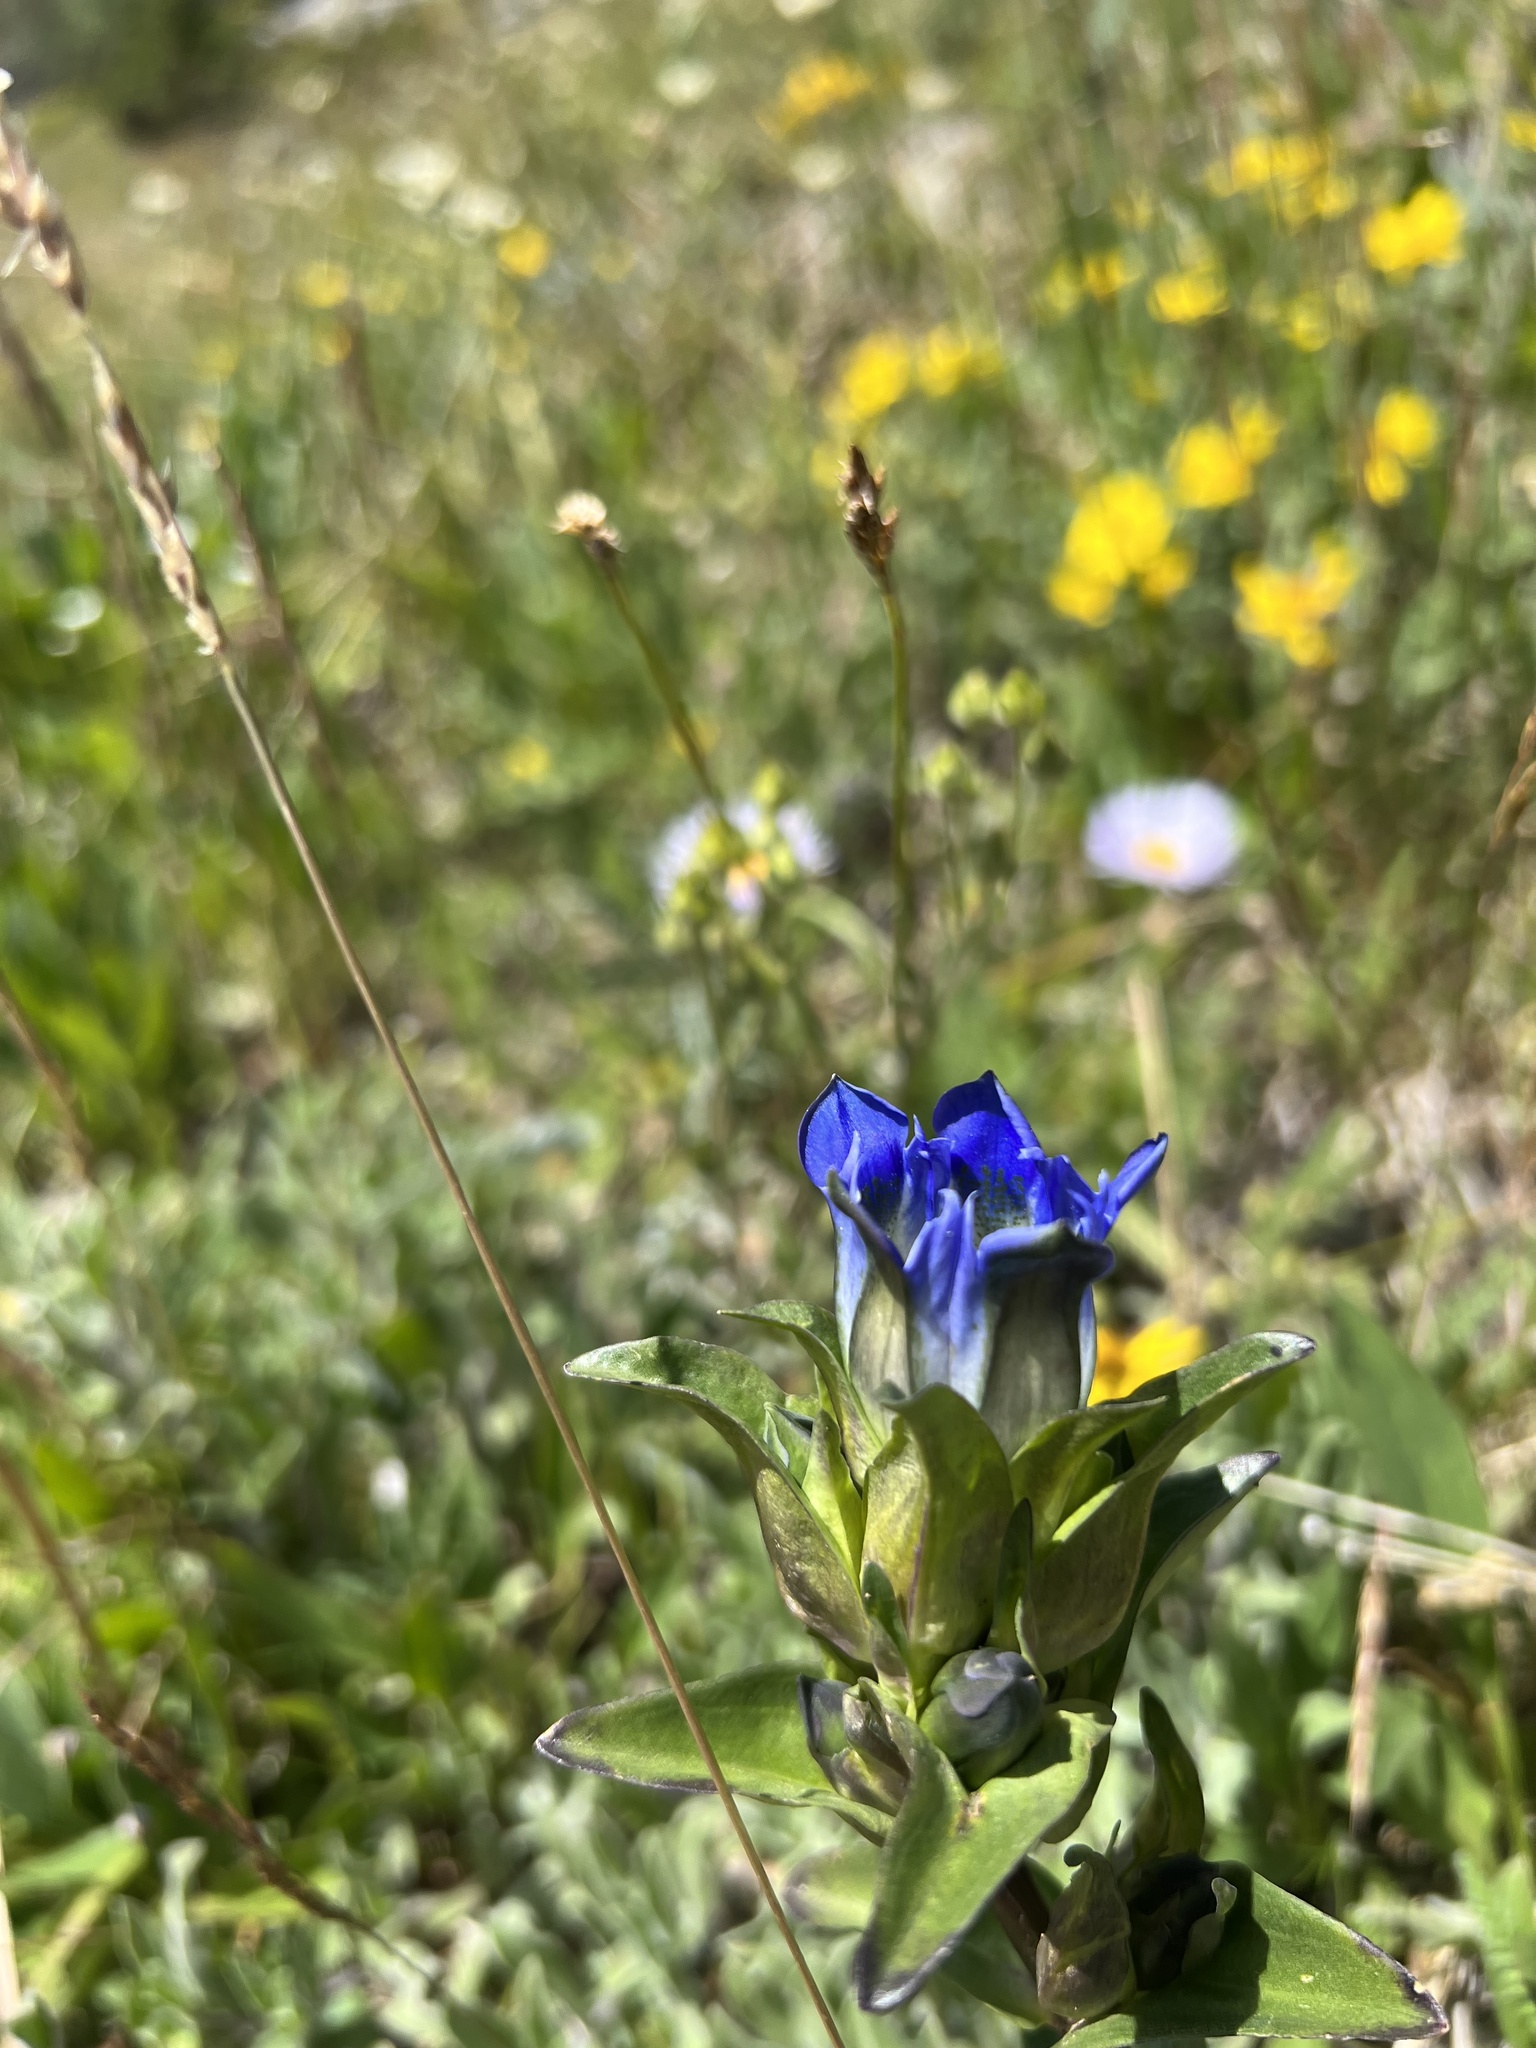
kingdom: Plantae
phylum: Tracheophyta
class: Magnoliopsida
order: Gentianales
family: Gentianaceae
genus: Gentiana
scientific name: Gentiana parryi
